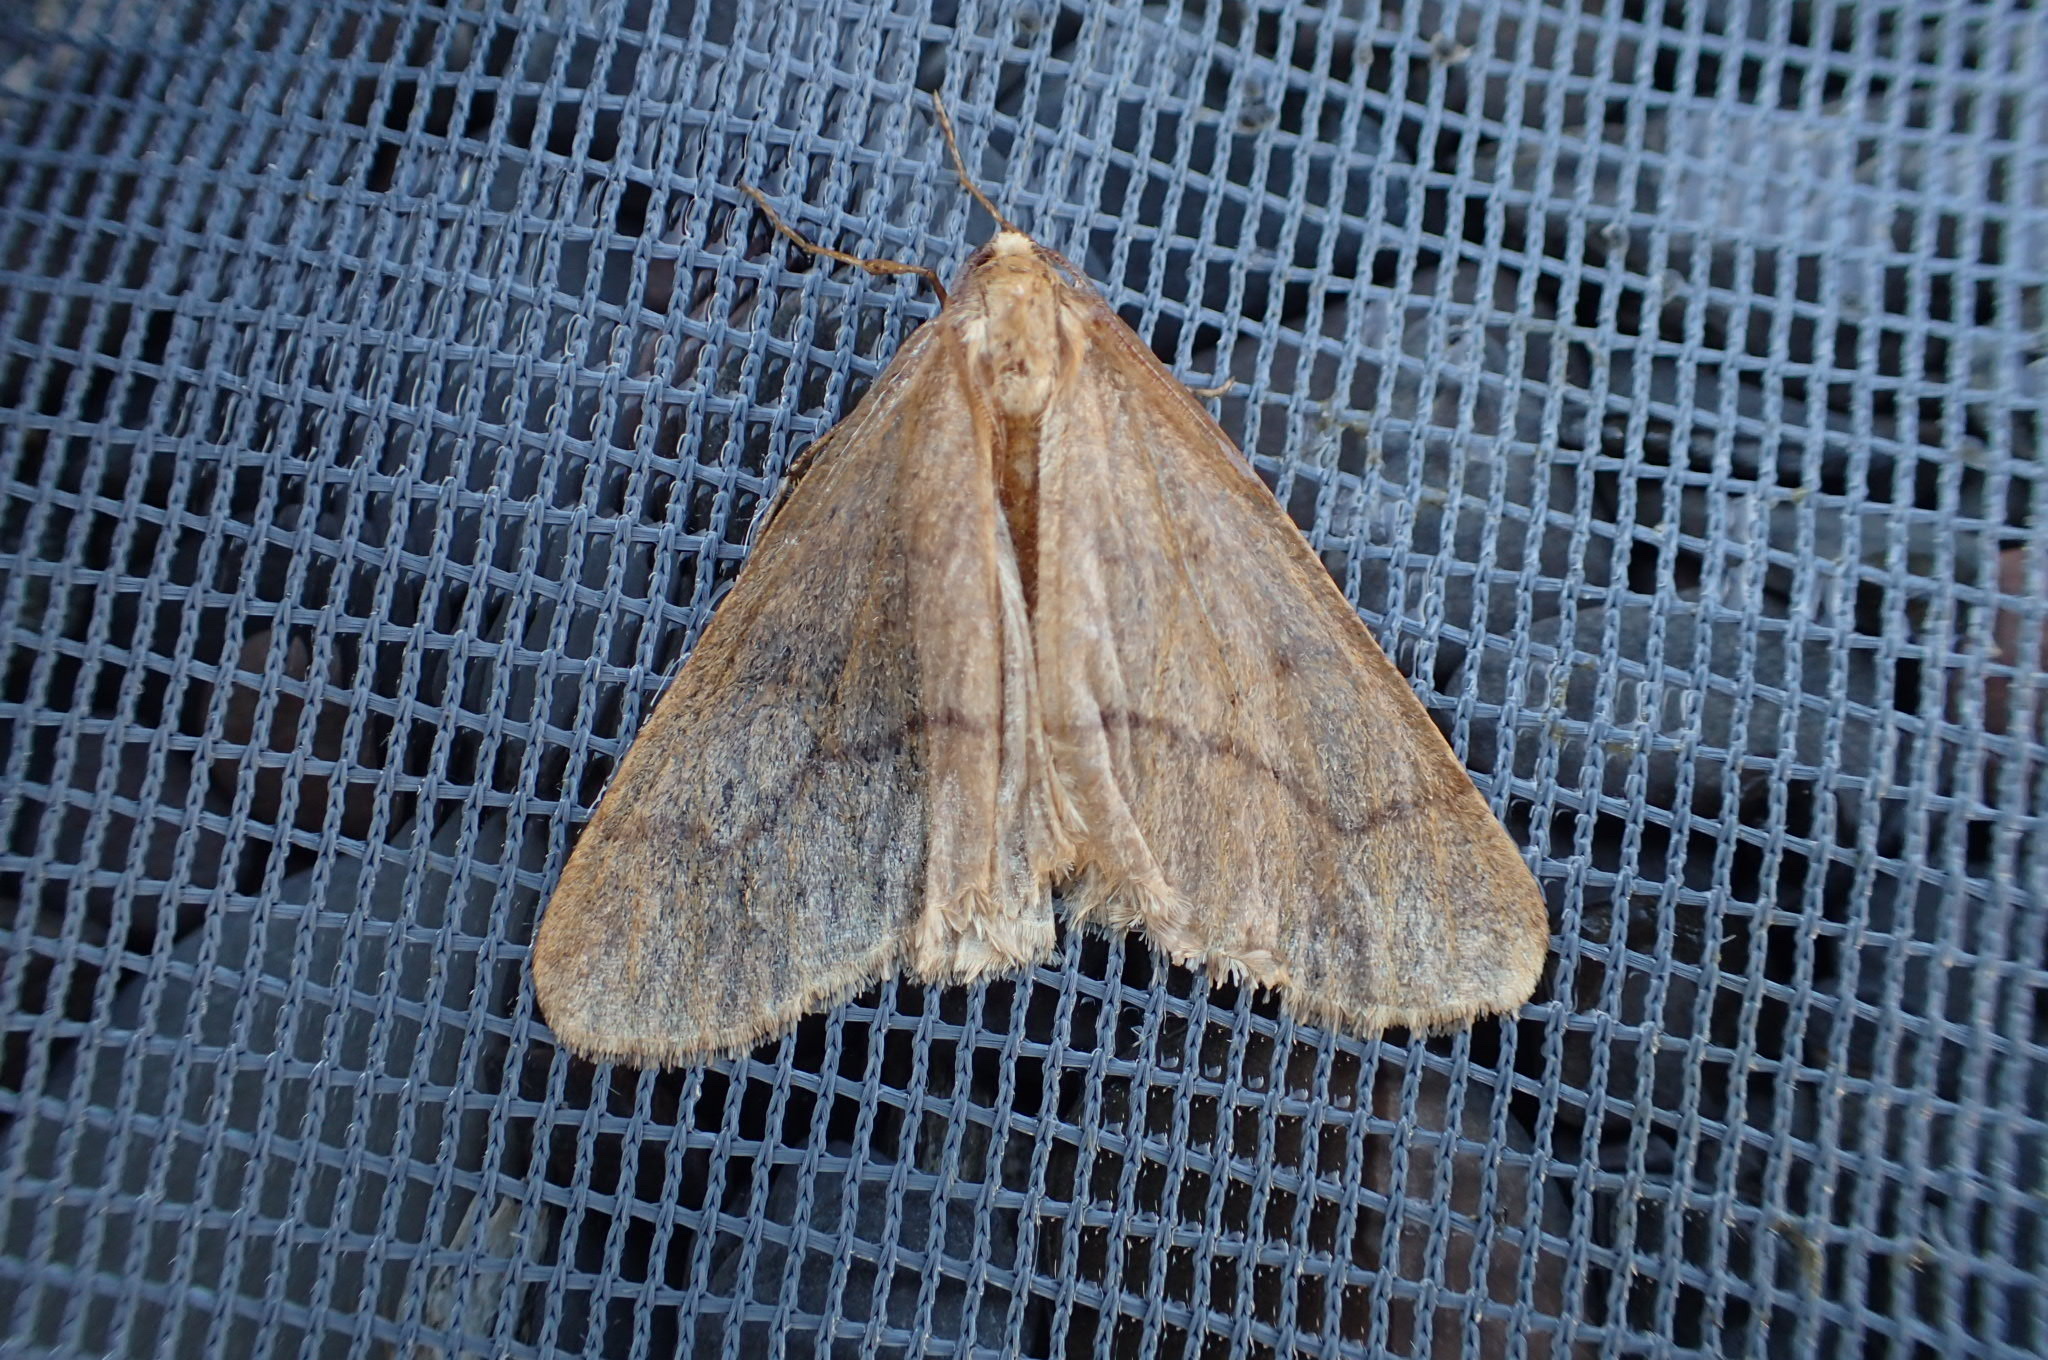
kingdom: Animalia
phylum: Arthropoda
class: Insecta
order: Lepidoptera
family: Geometridae
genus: Erannis
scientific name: Erannis tiliaria
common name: Linden looper
